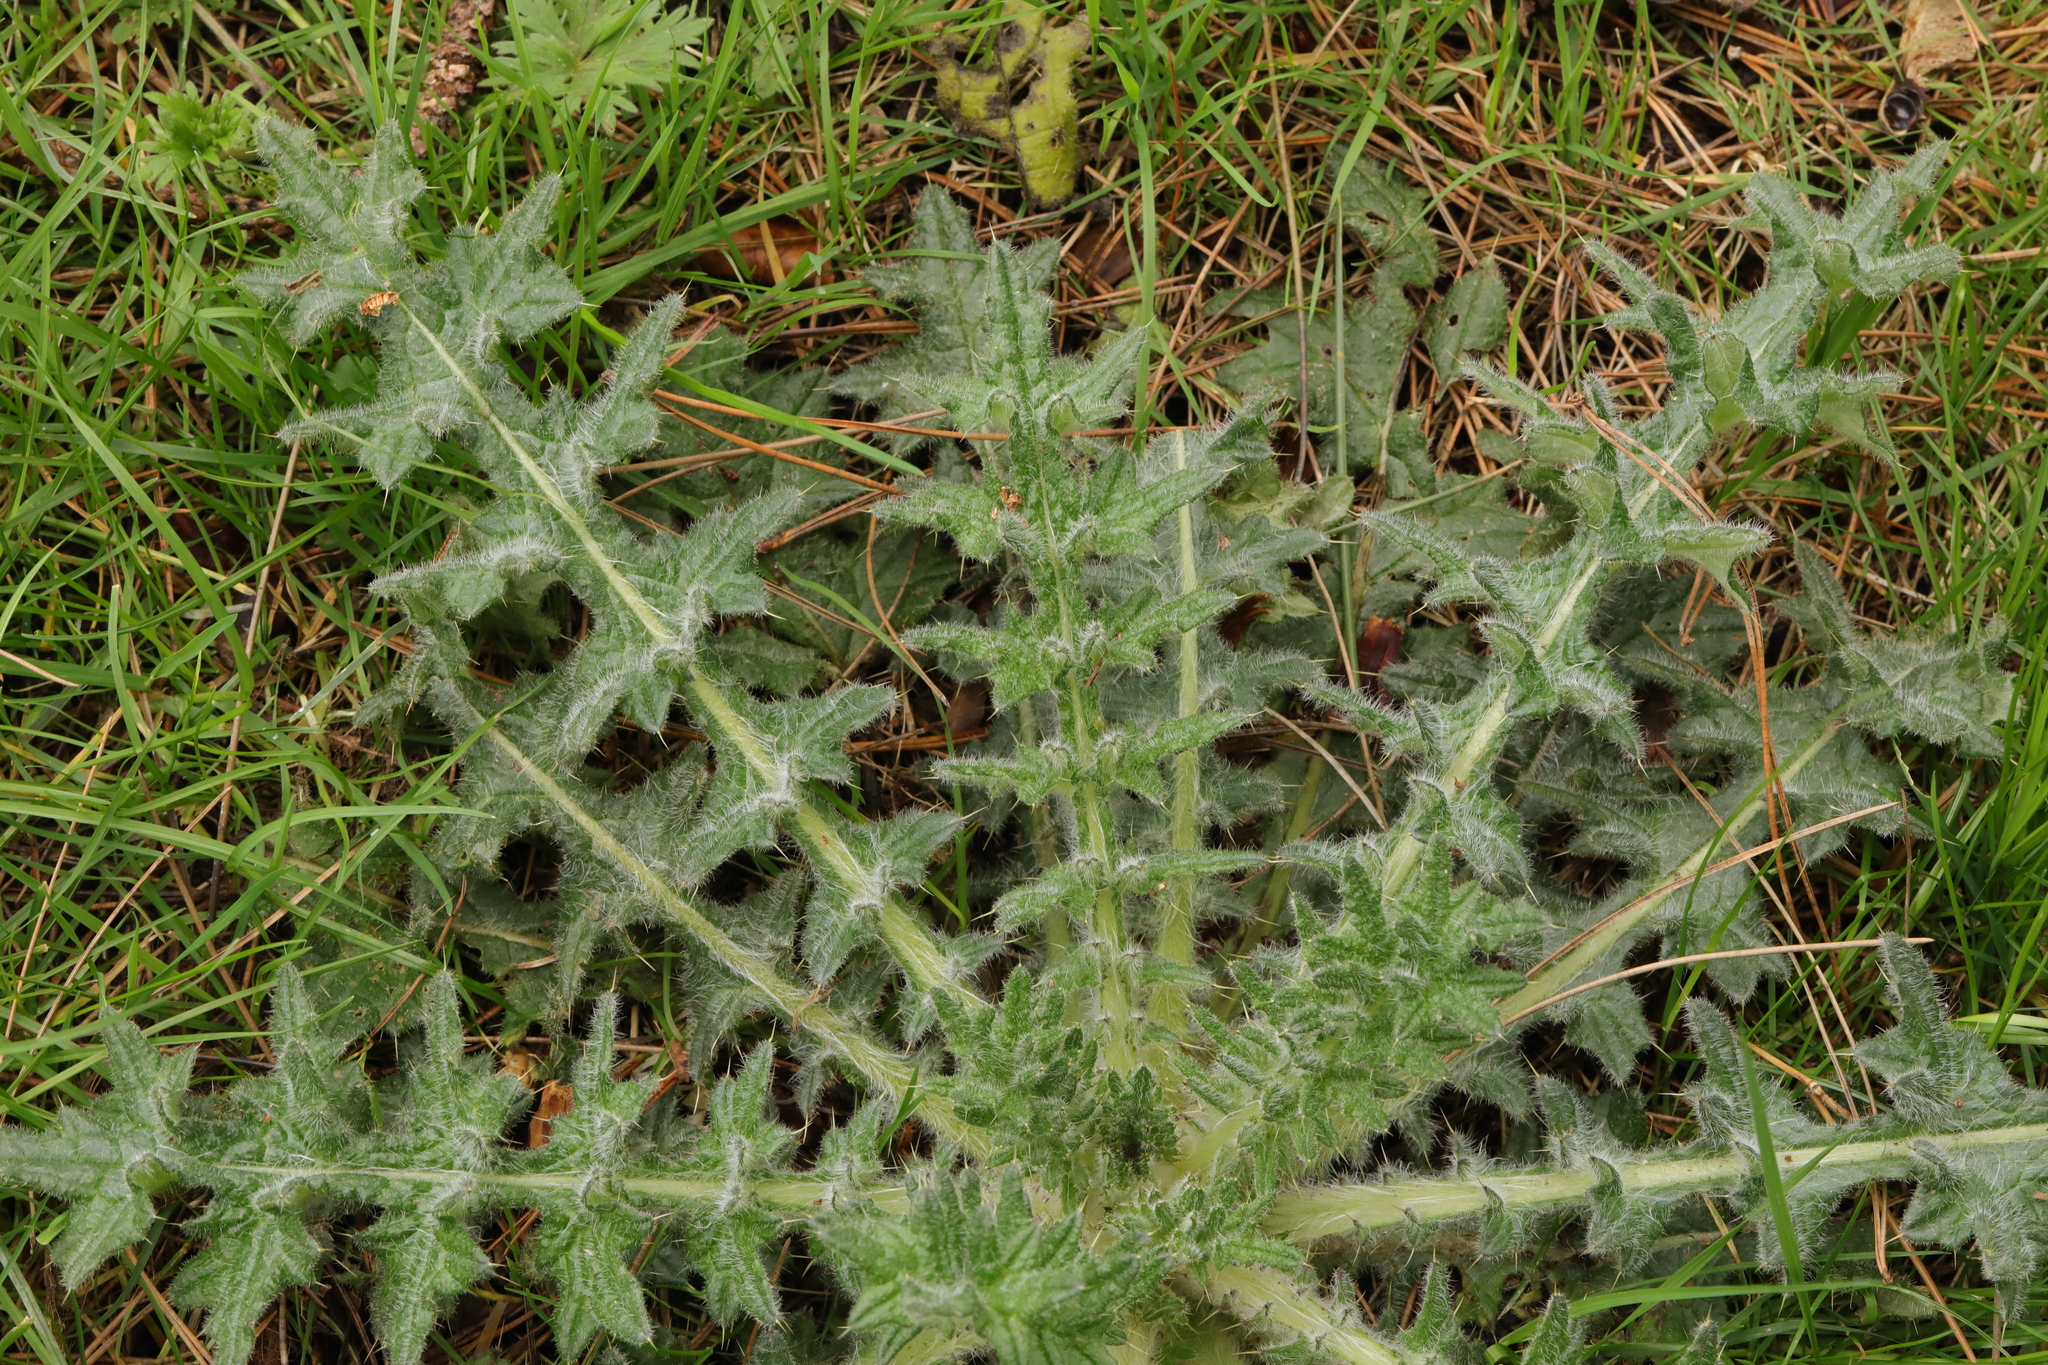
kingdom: Plantae
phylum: Tracheophyta
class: Magnoliopsida
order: Asterales
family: Asteraceae
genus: Cirsium
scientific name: Cirsium vulgare
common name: Bull thistle
